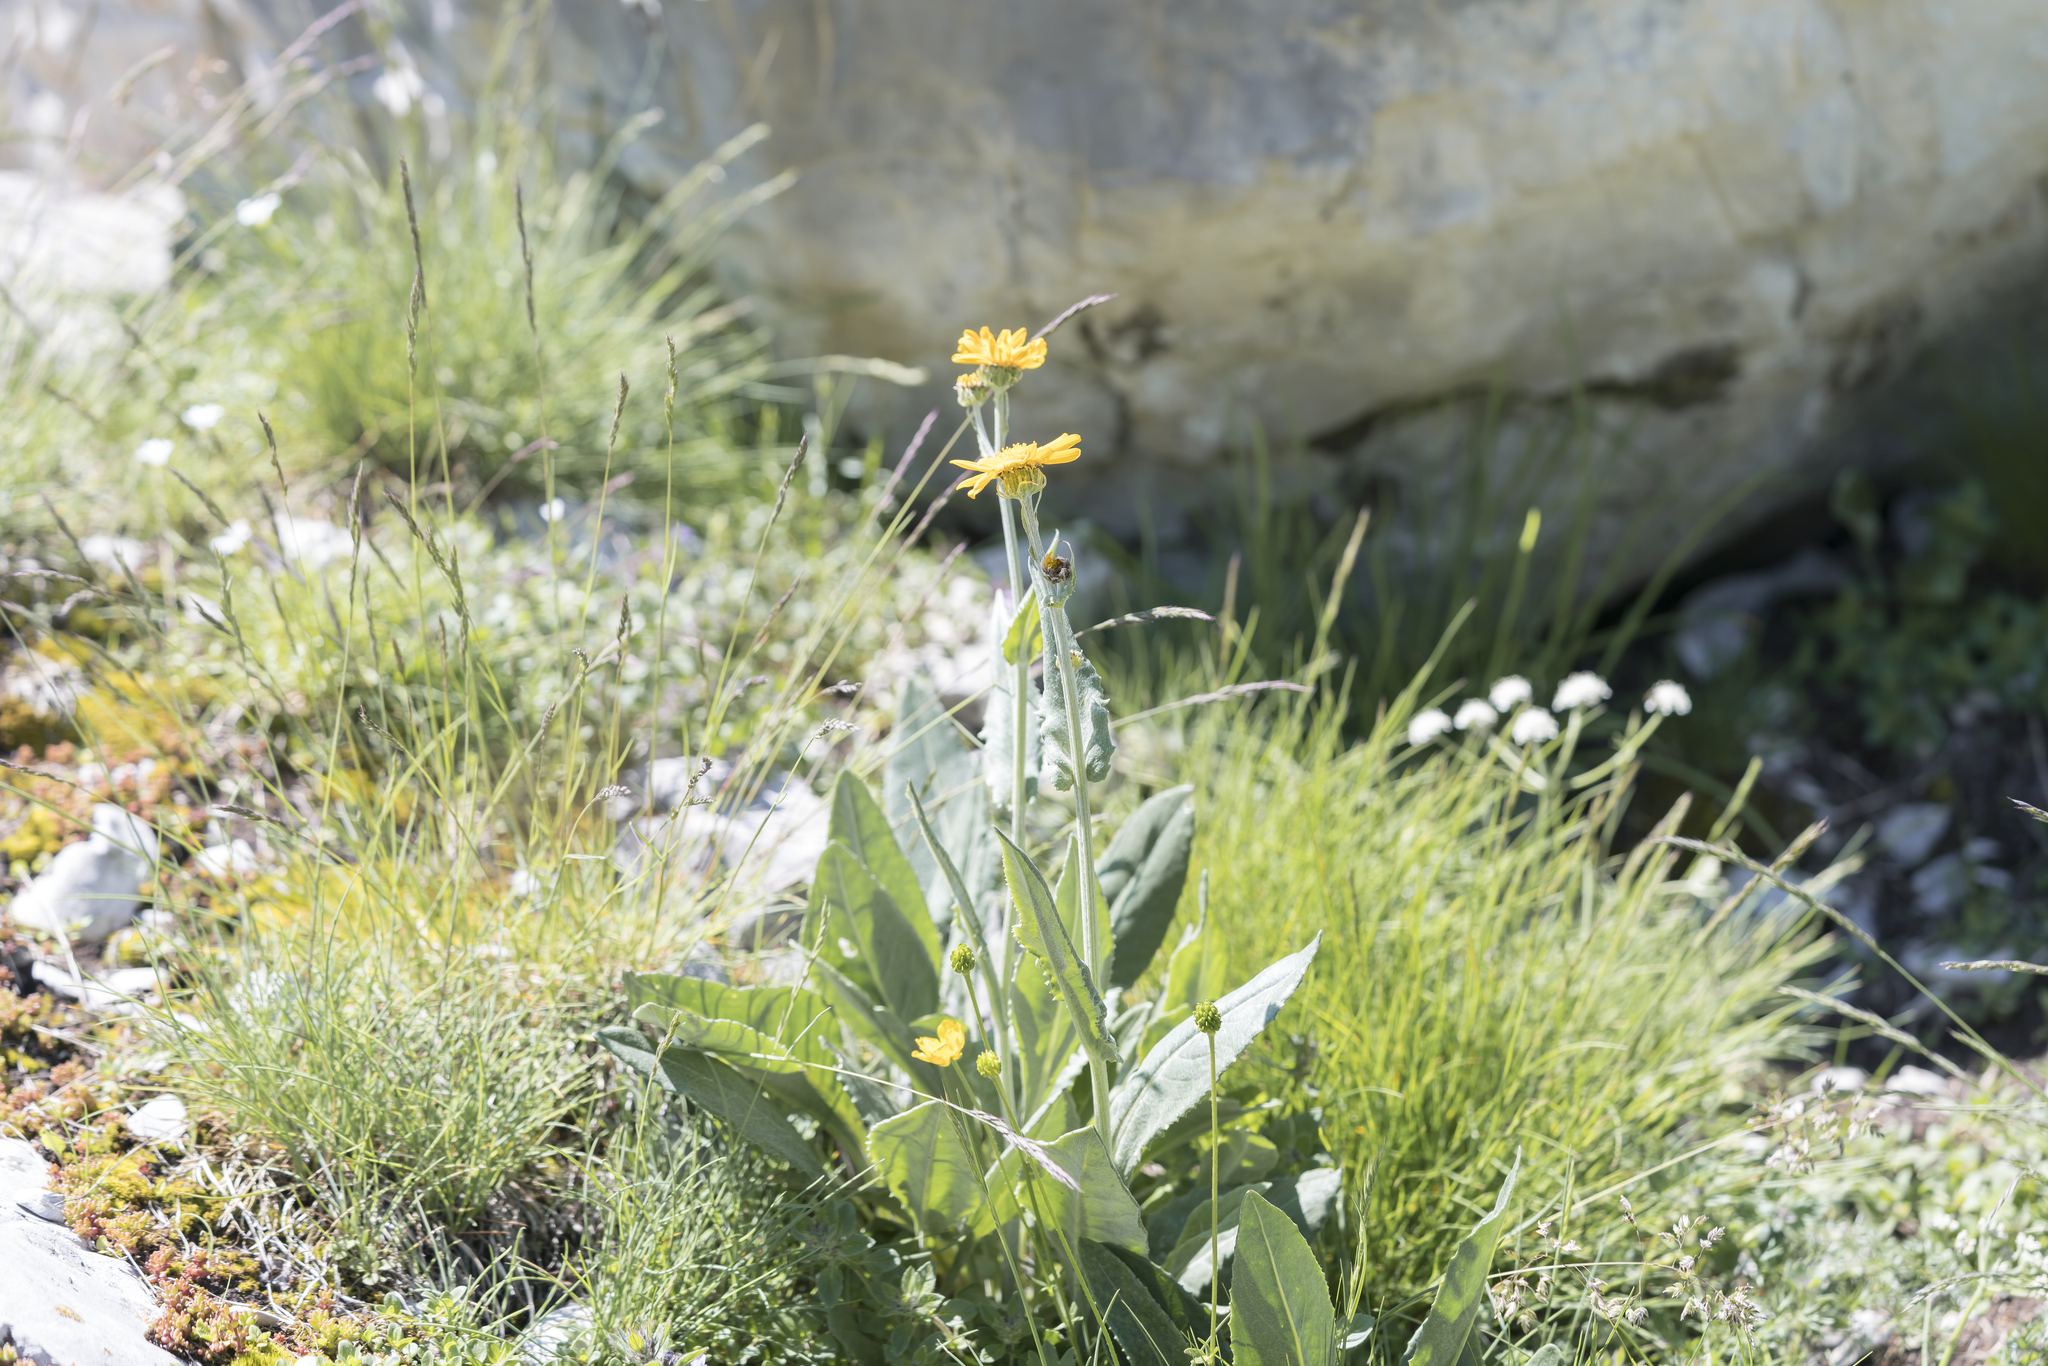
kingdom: Plantae
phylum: Tracheophyta
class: Magnoliopsida
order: Asterales
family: Asteraceae
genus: Senecio
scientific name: Senecio doronicum
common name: Chamois ragwort
